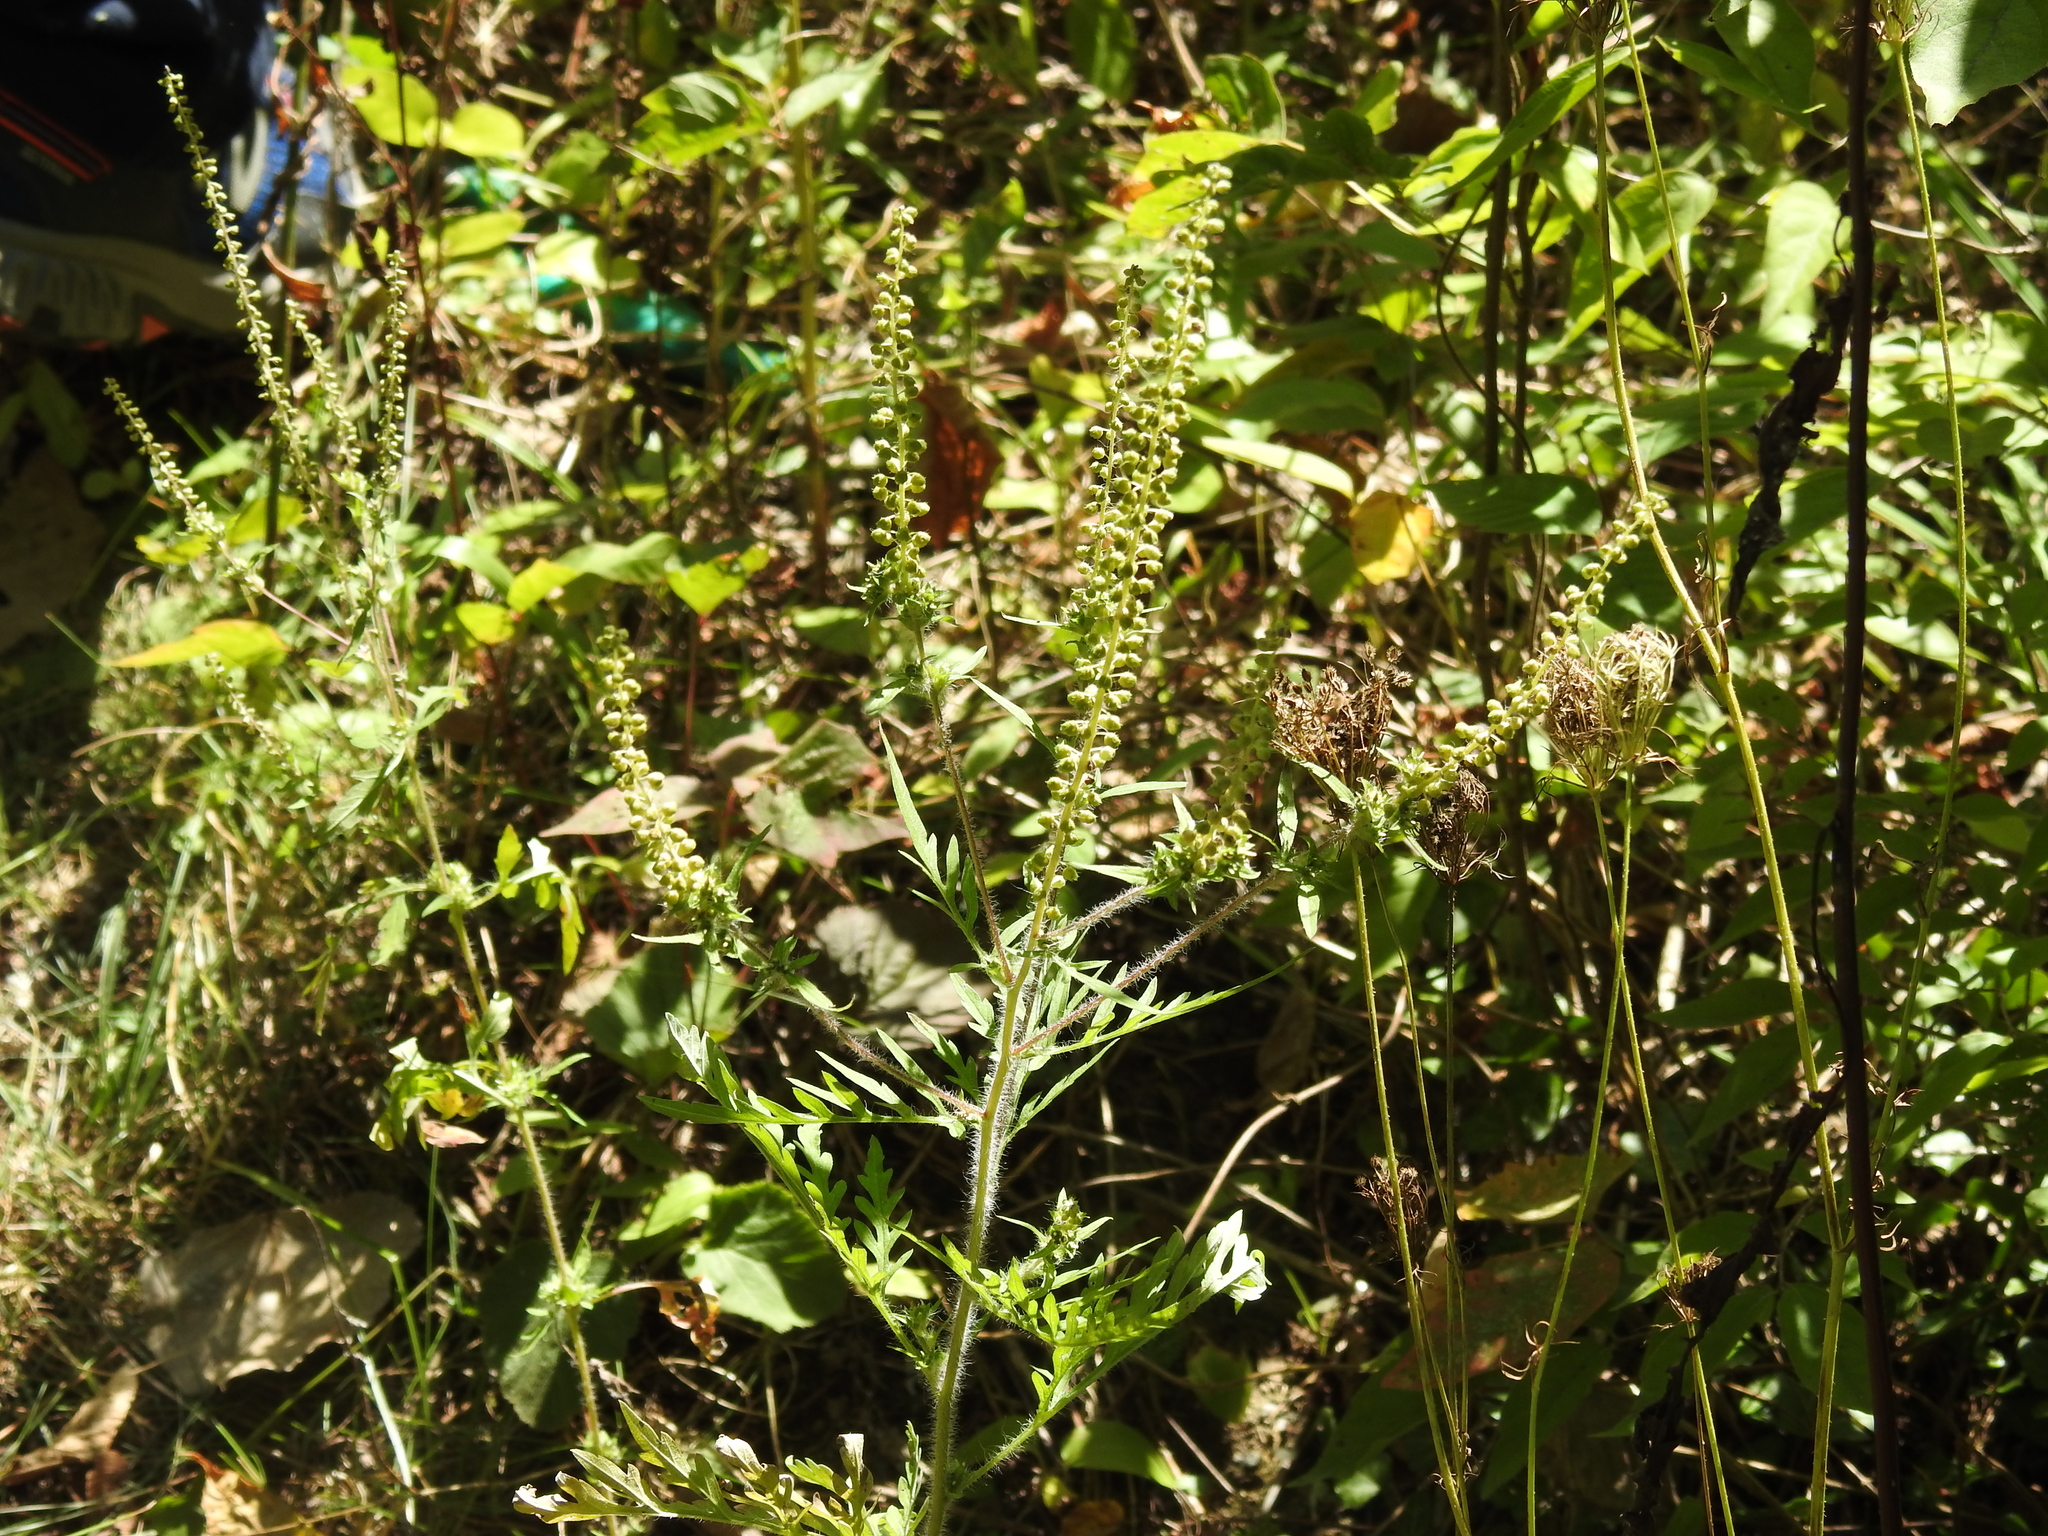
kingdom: Plantae
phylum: Tracheophyta
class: Magnoliopsida
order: Asterales
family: Asteraceae
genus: Ambrosia
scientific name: Ambrosia artemisiifolia
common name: Annual ragweed
